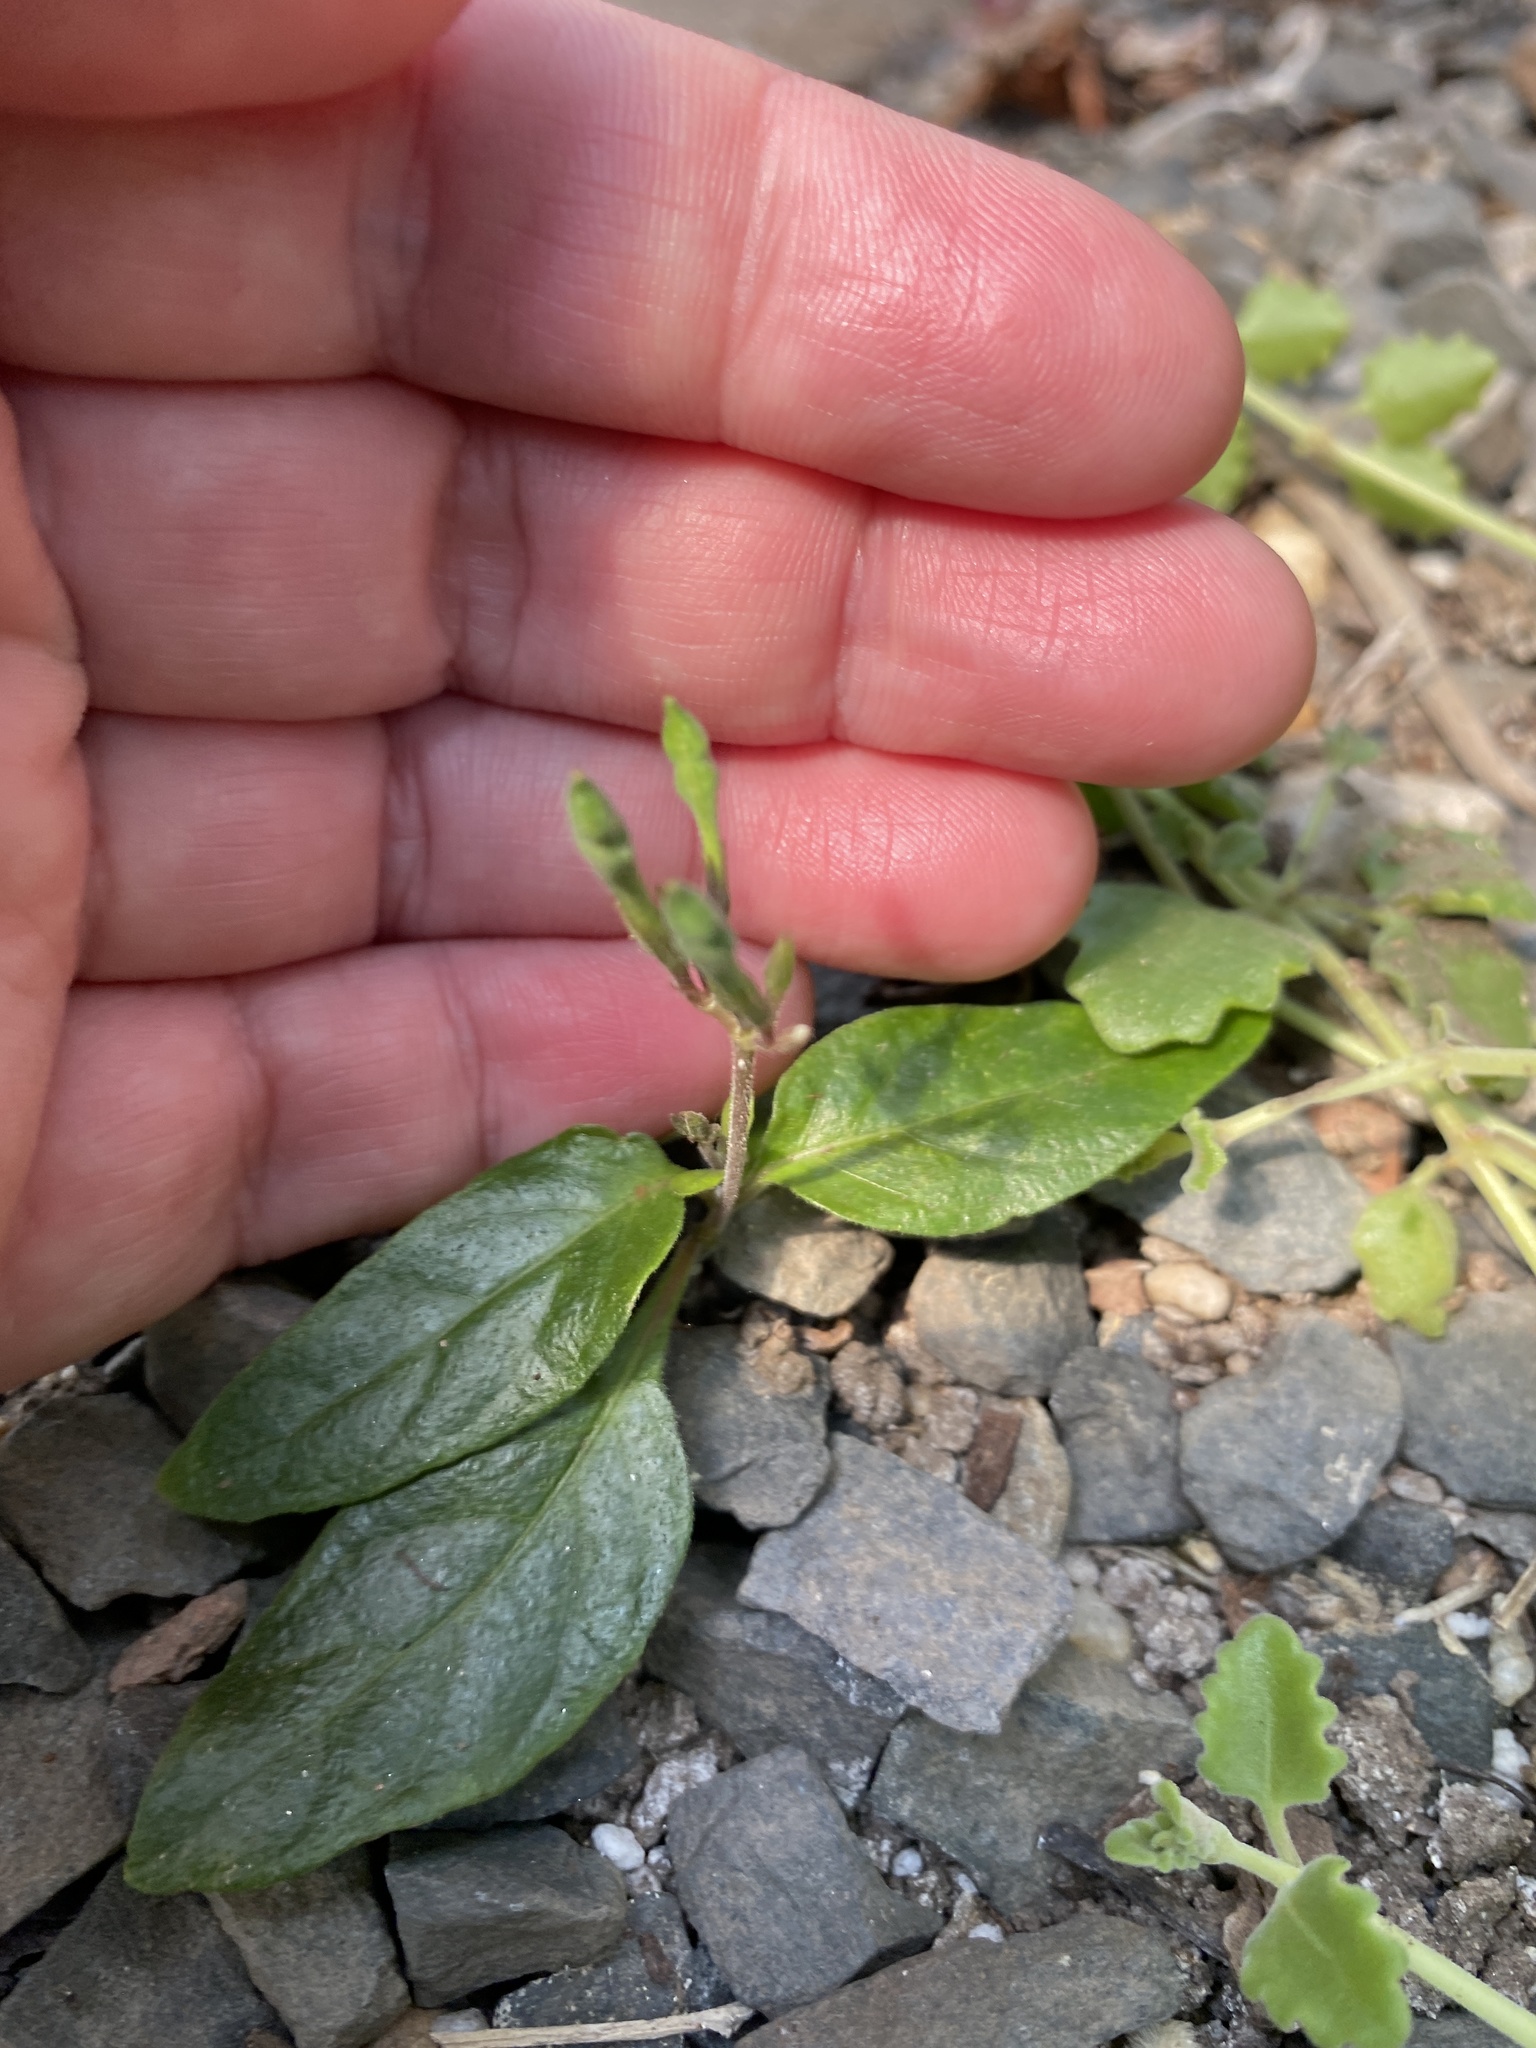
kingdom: Plantae
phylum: Tracheophyta
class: Magnoliopsida
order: Lamiales
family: Acanthaceae
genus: Pseuderanthemum
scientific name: Pseuderanthemum variabile
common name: Night and afternoon
